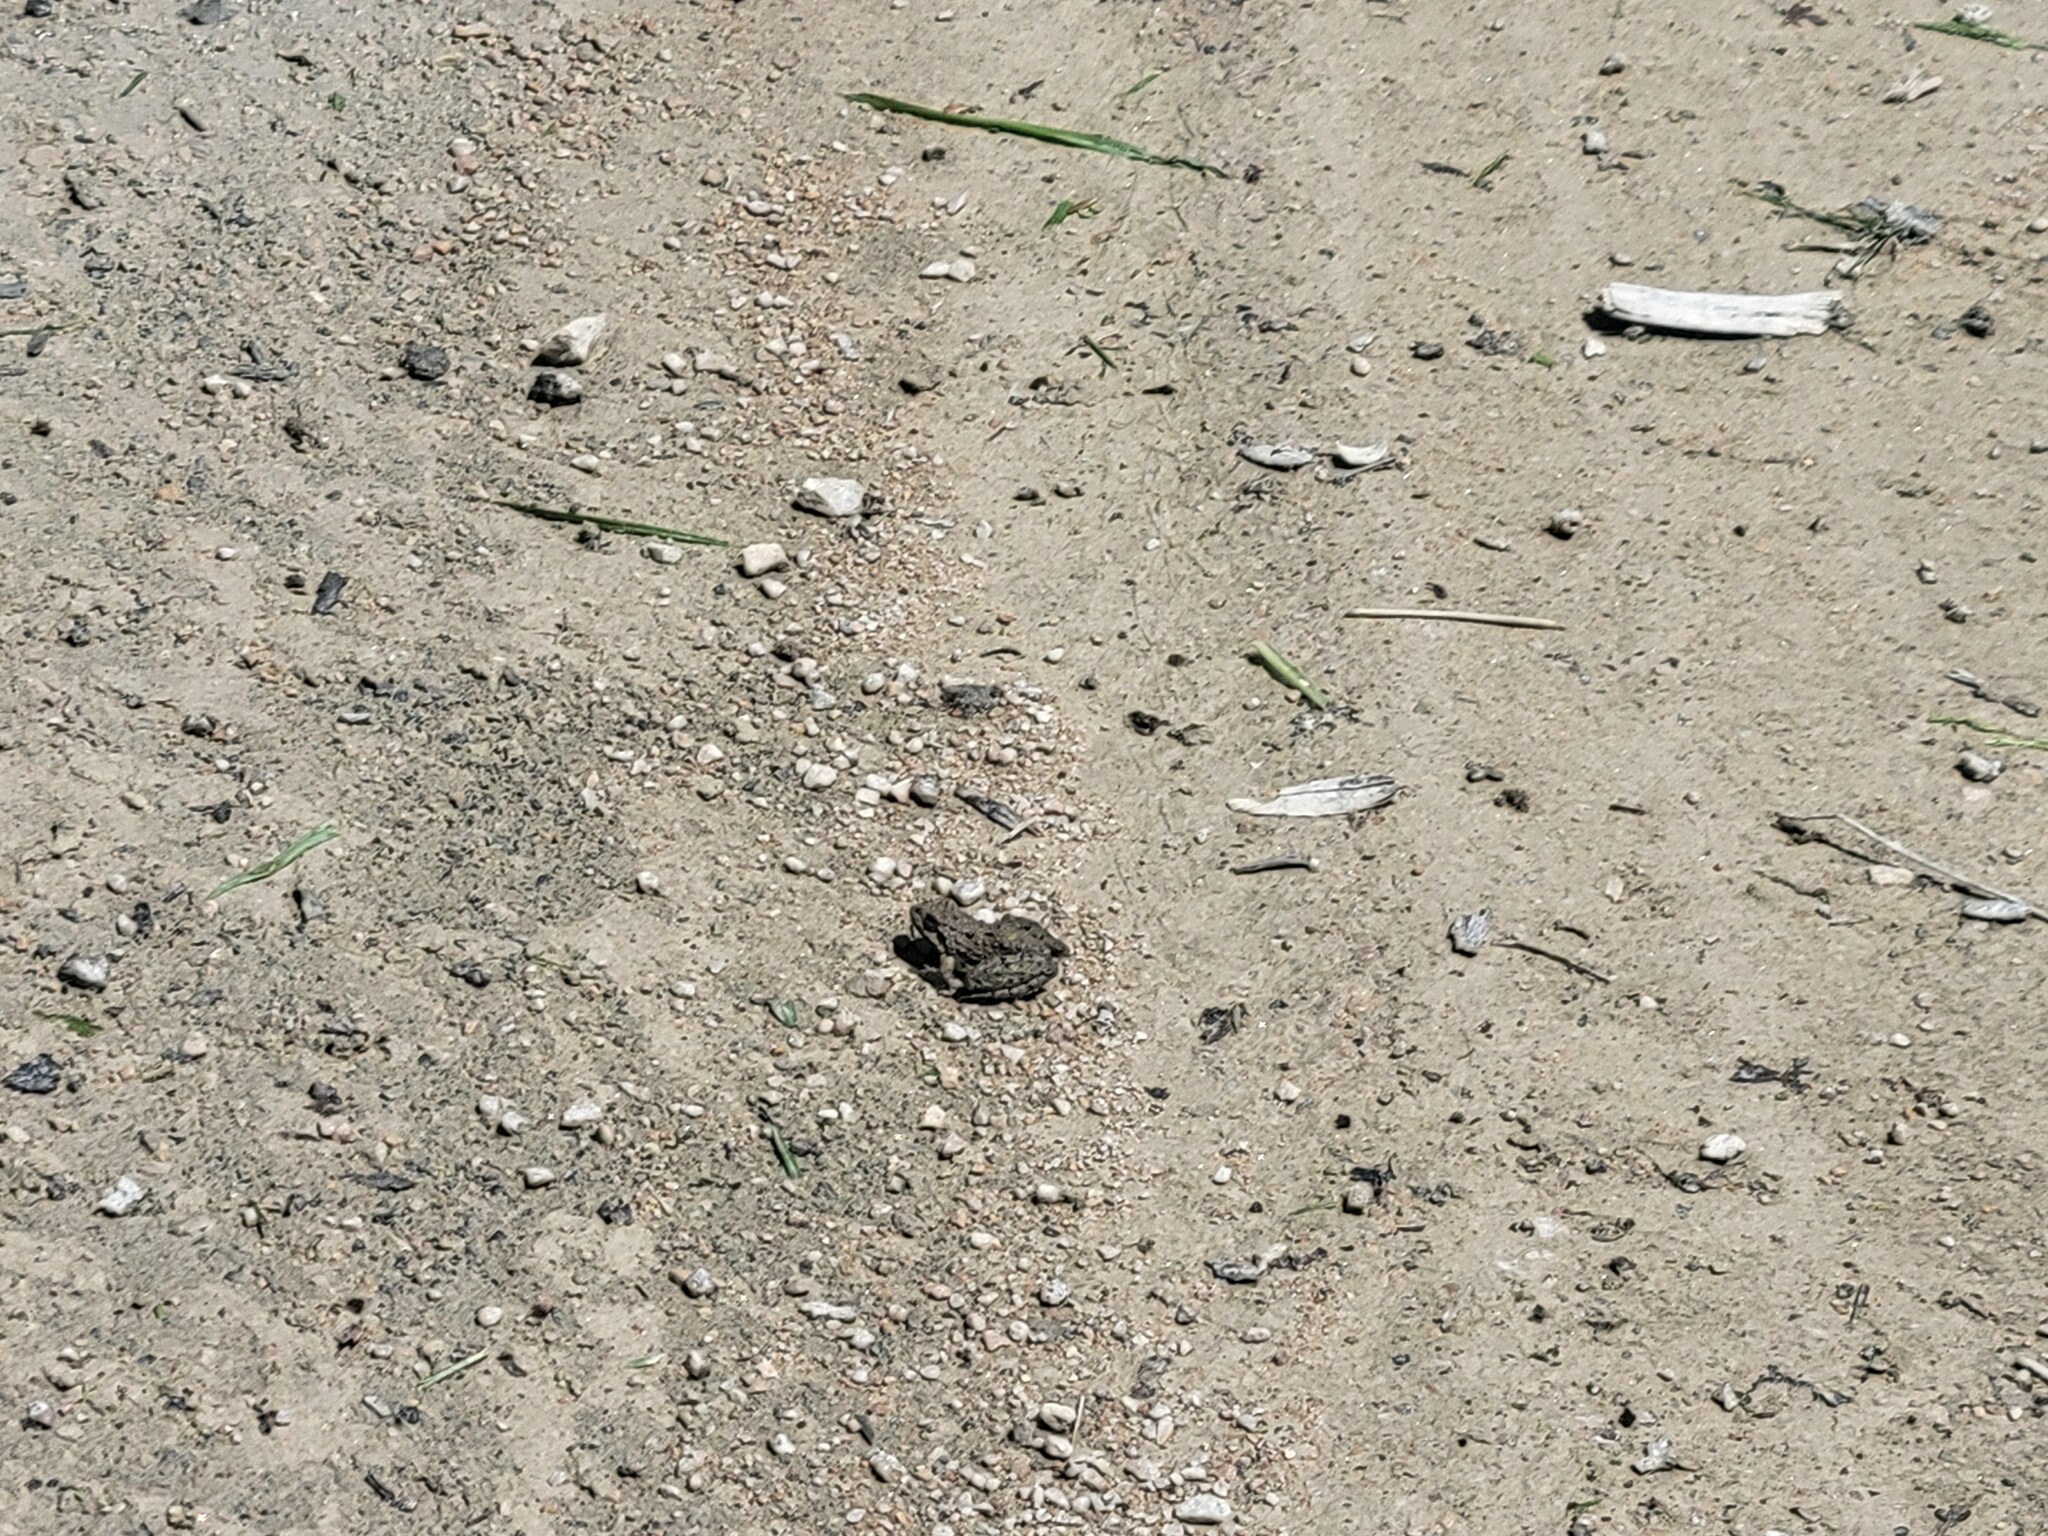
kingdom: Animalia
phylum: Chordata
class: Amphibia
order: Anura
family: Hylidae
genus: Acris
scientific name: Acris blanchardi
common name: Blanchard's cricket frog
